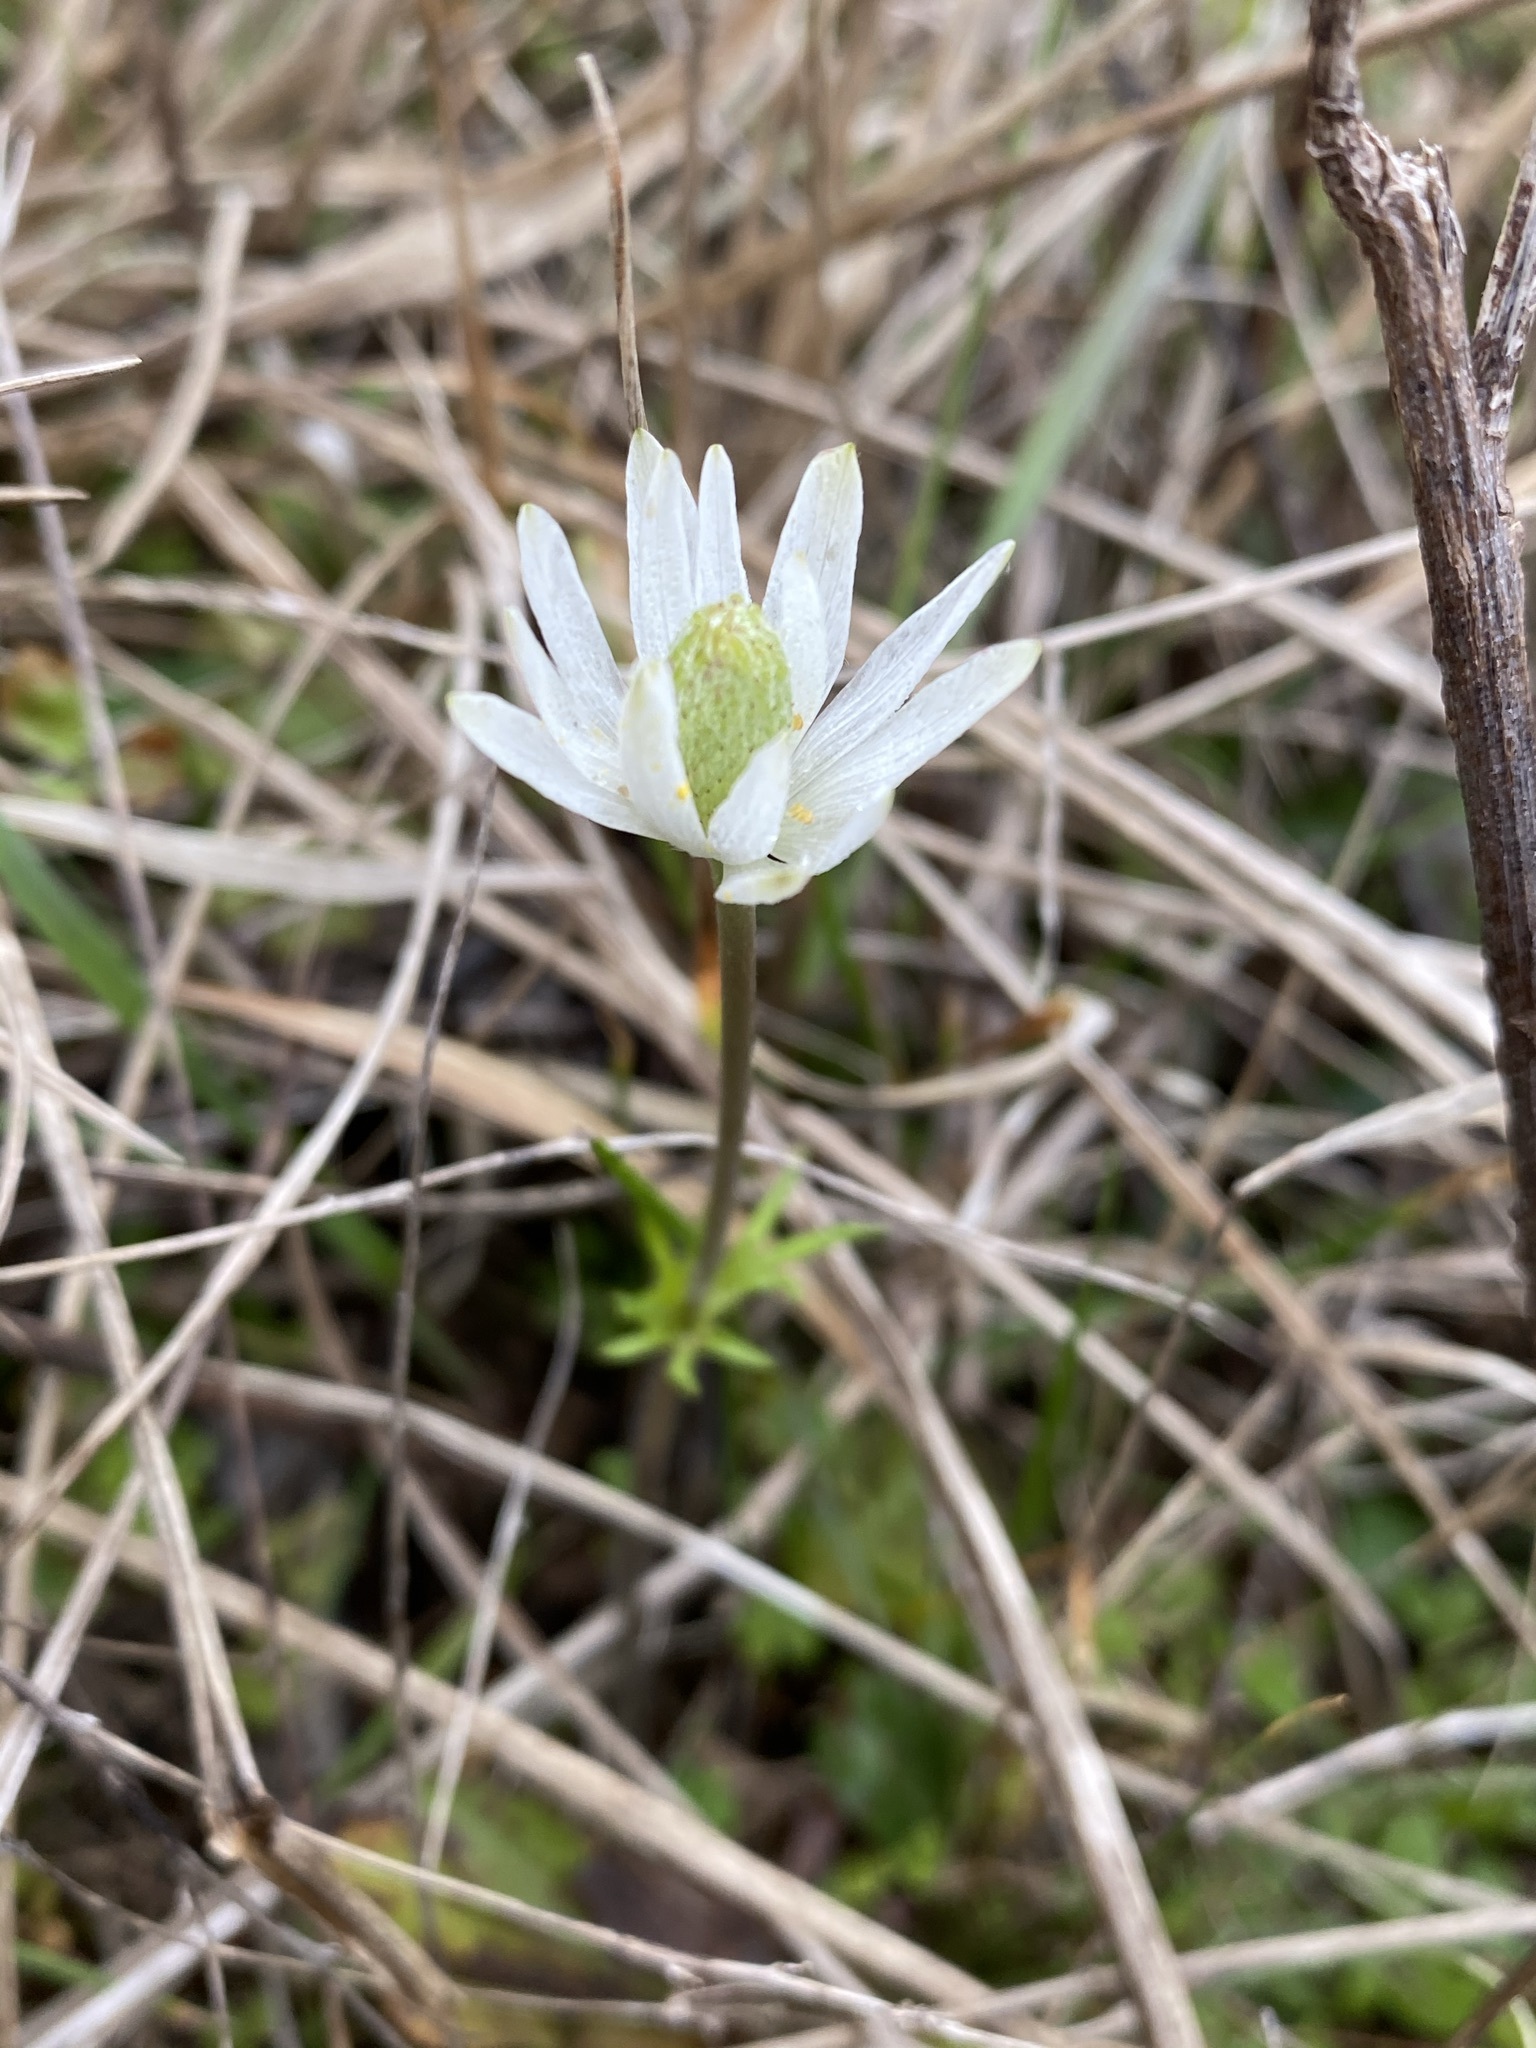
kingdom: Plantae
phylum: Tracheophyta
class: Magnoliopsida
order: Ranunculales
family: Ranunculaceae
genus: Anemone
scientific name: Anemone berlandieri
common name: Ten-petal anemone
